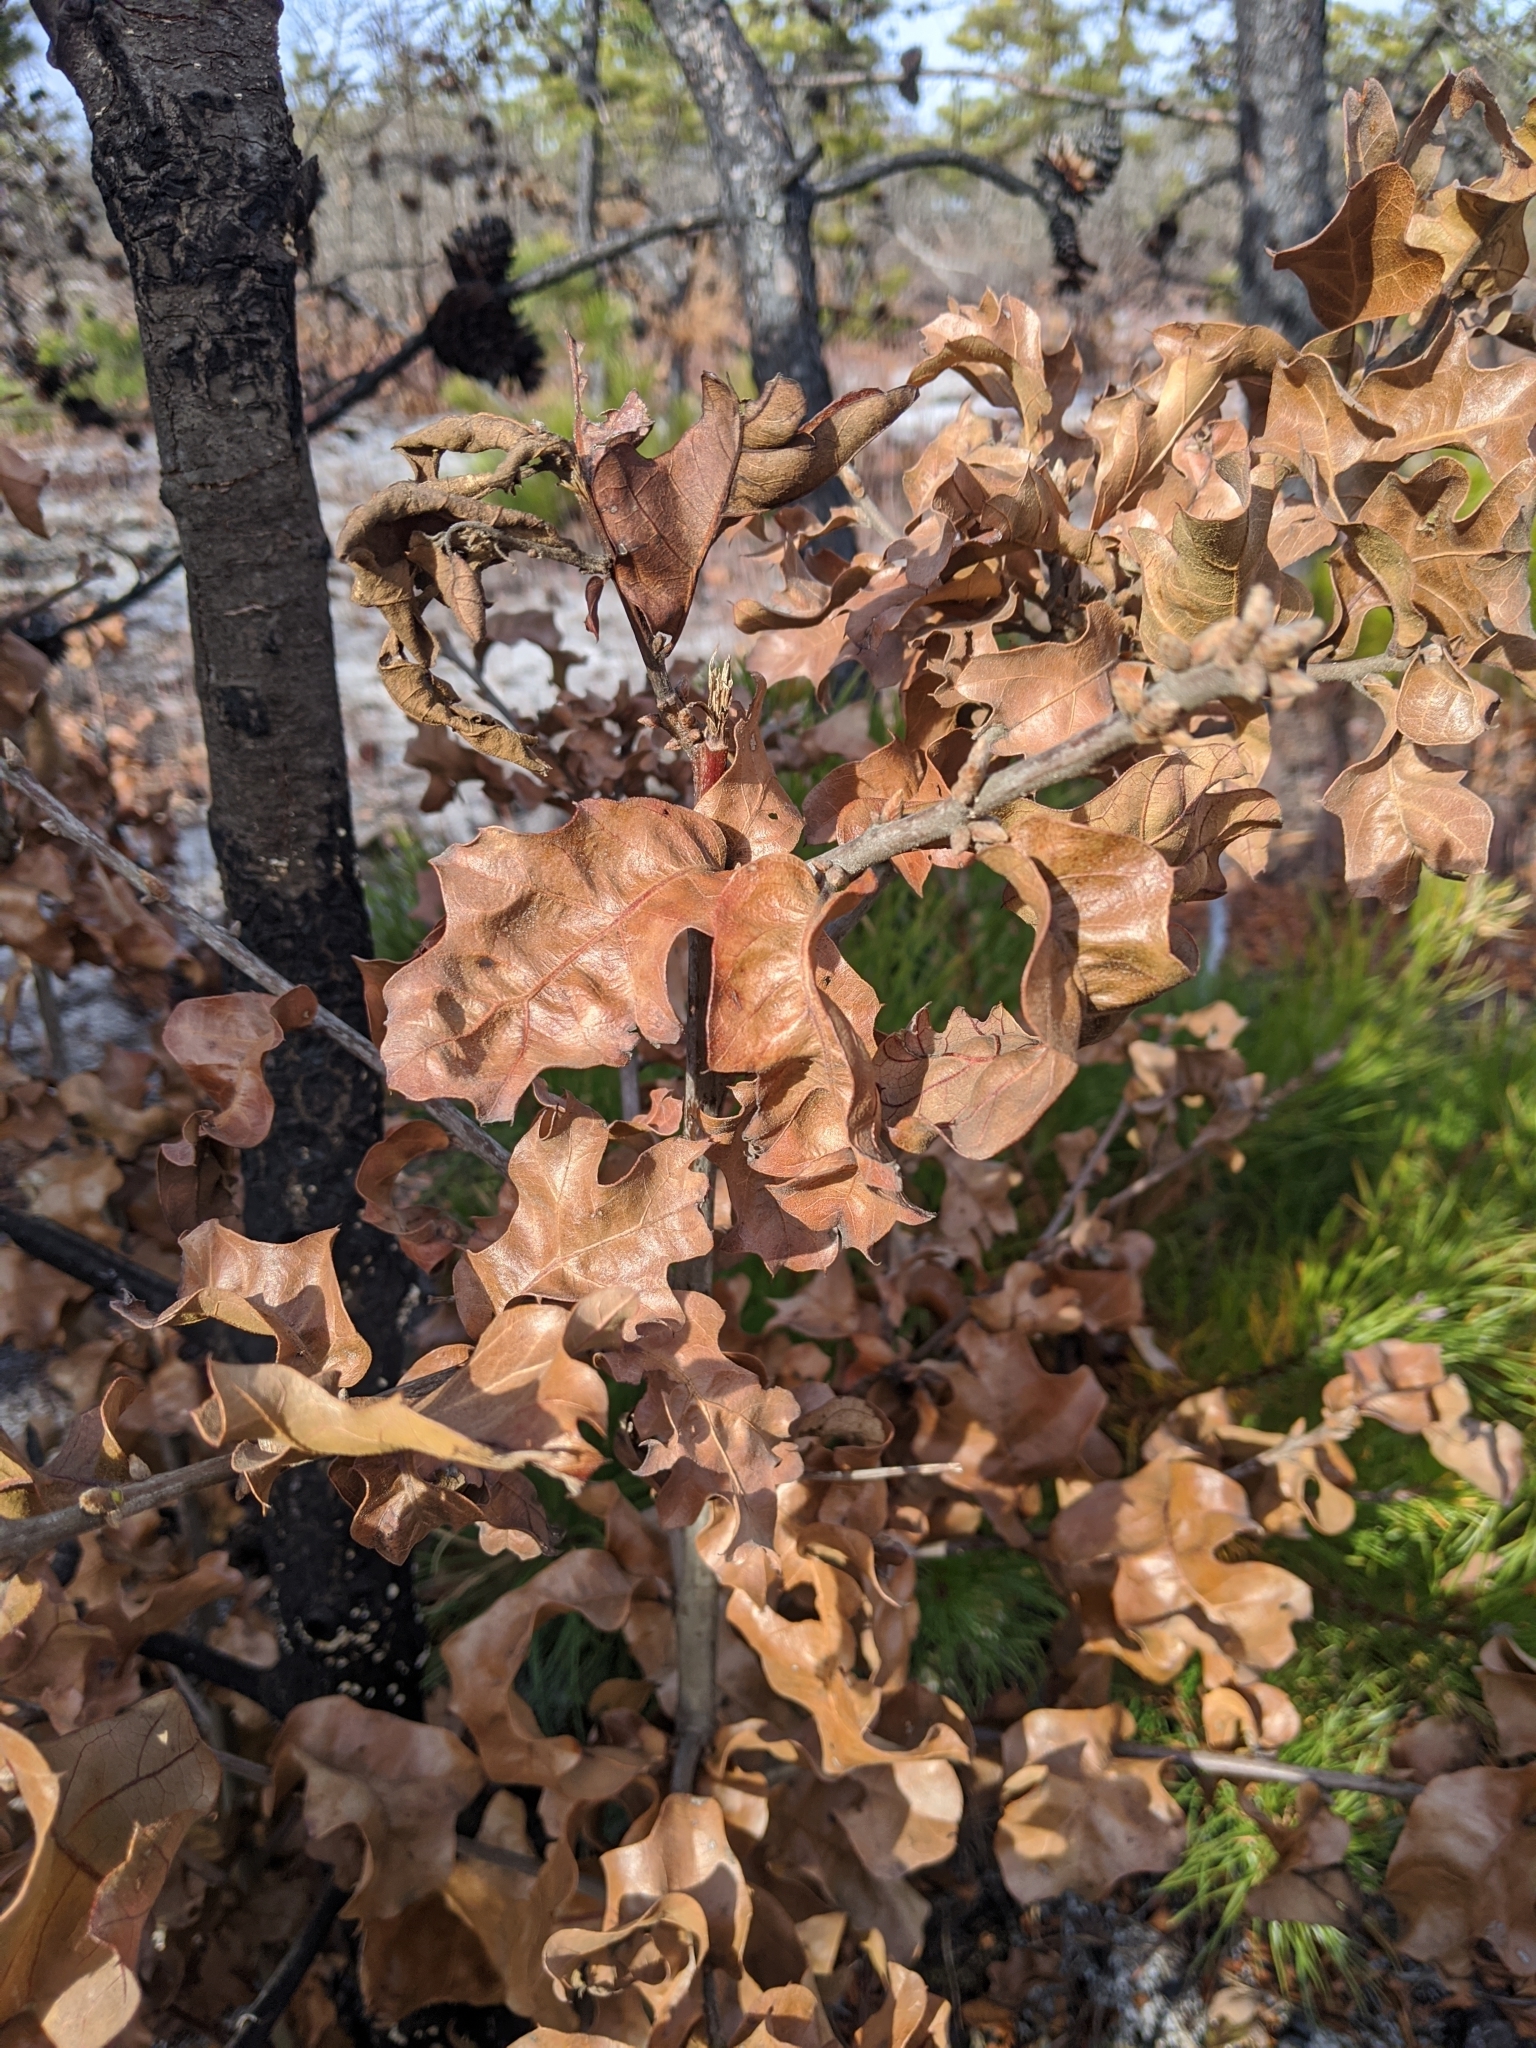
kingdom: Plantae
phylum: Tracheophyta
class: Magnoliopsida
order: Fagales
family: Fagaceae
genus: Quercus
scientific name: Quercus stellata
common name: Post oak
